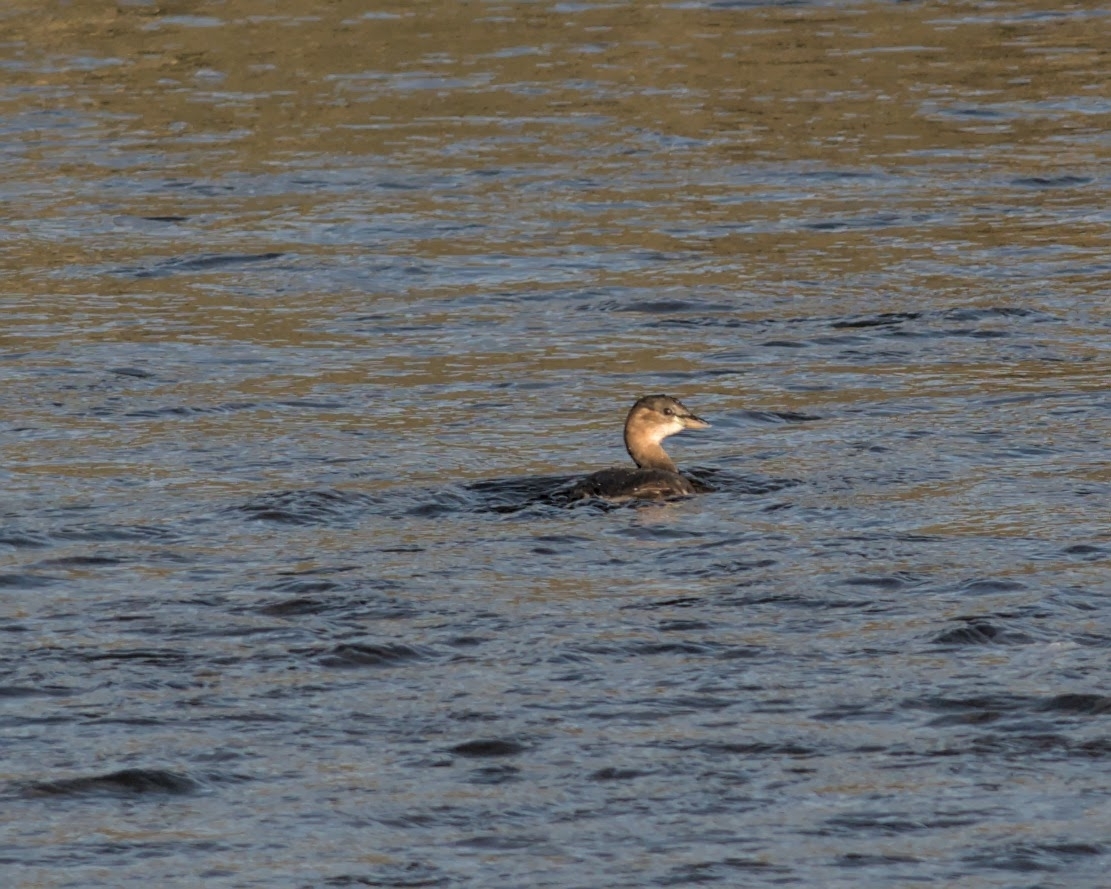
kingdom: Animalia
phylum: Chordata
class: Aves
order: Podicipediformes
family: Podicipedidae
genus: Tachybaptus
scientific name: Tachybaptus ruficollis
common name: Little grebe
